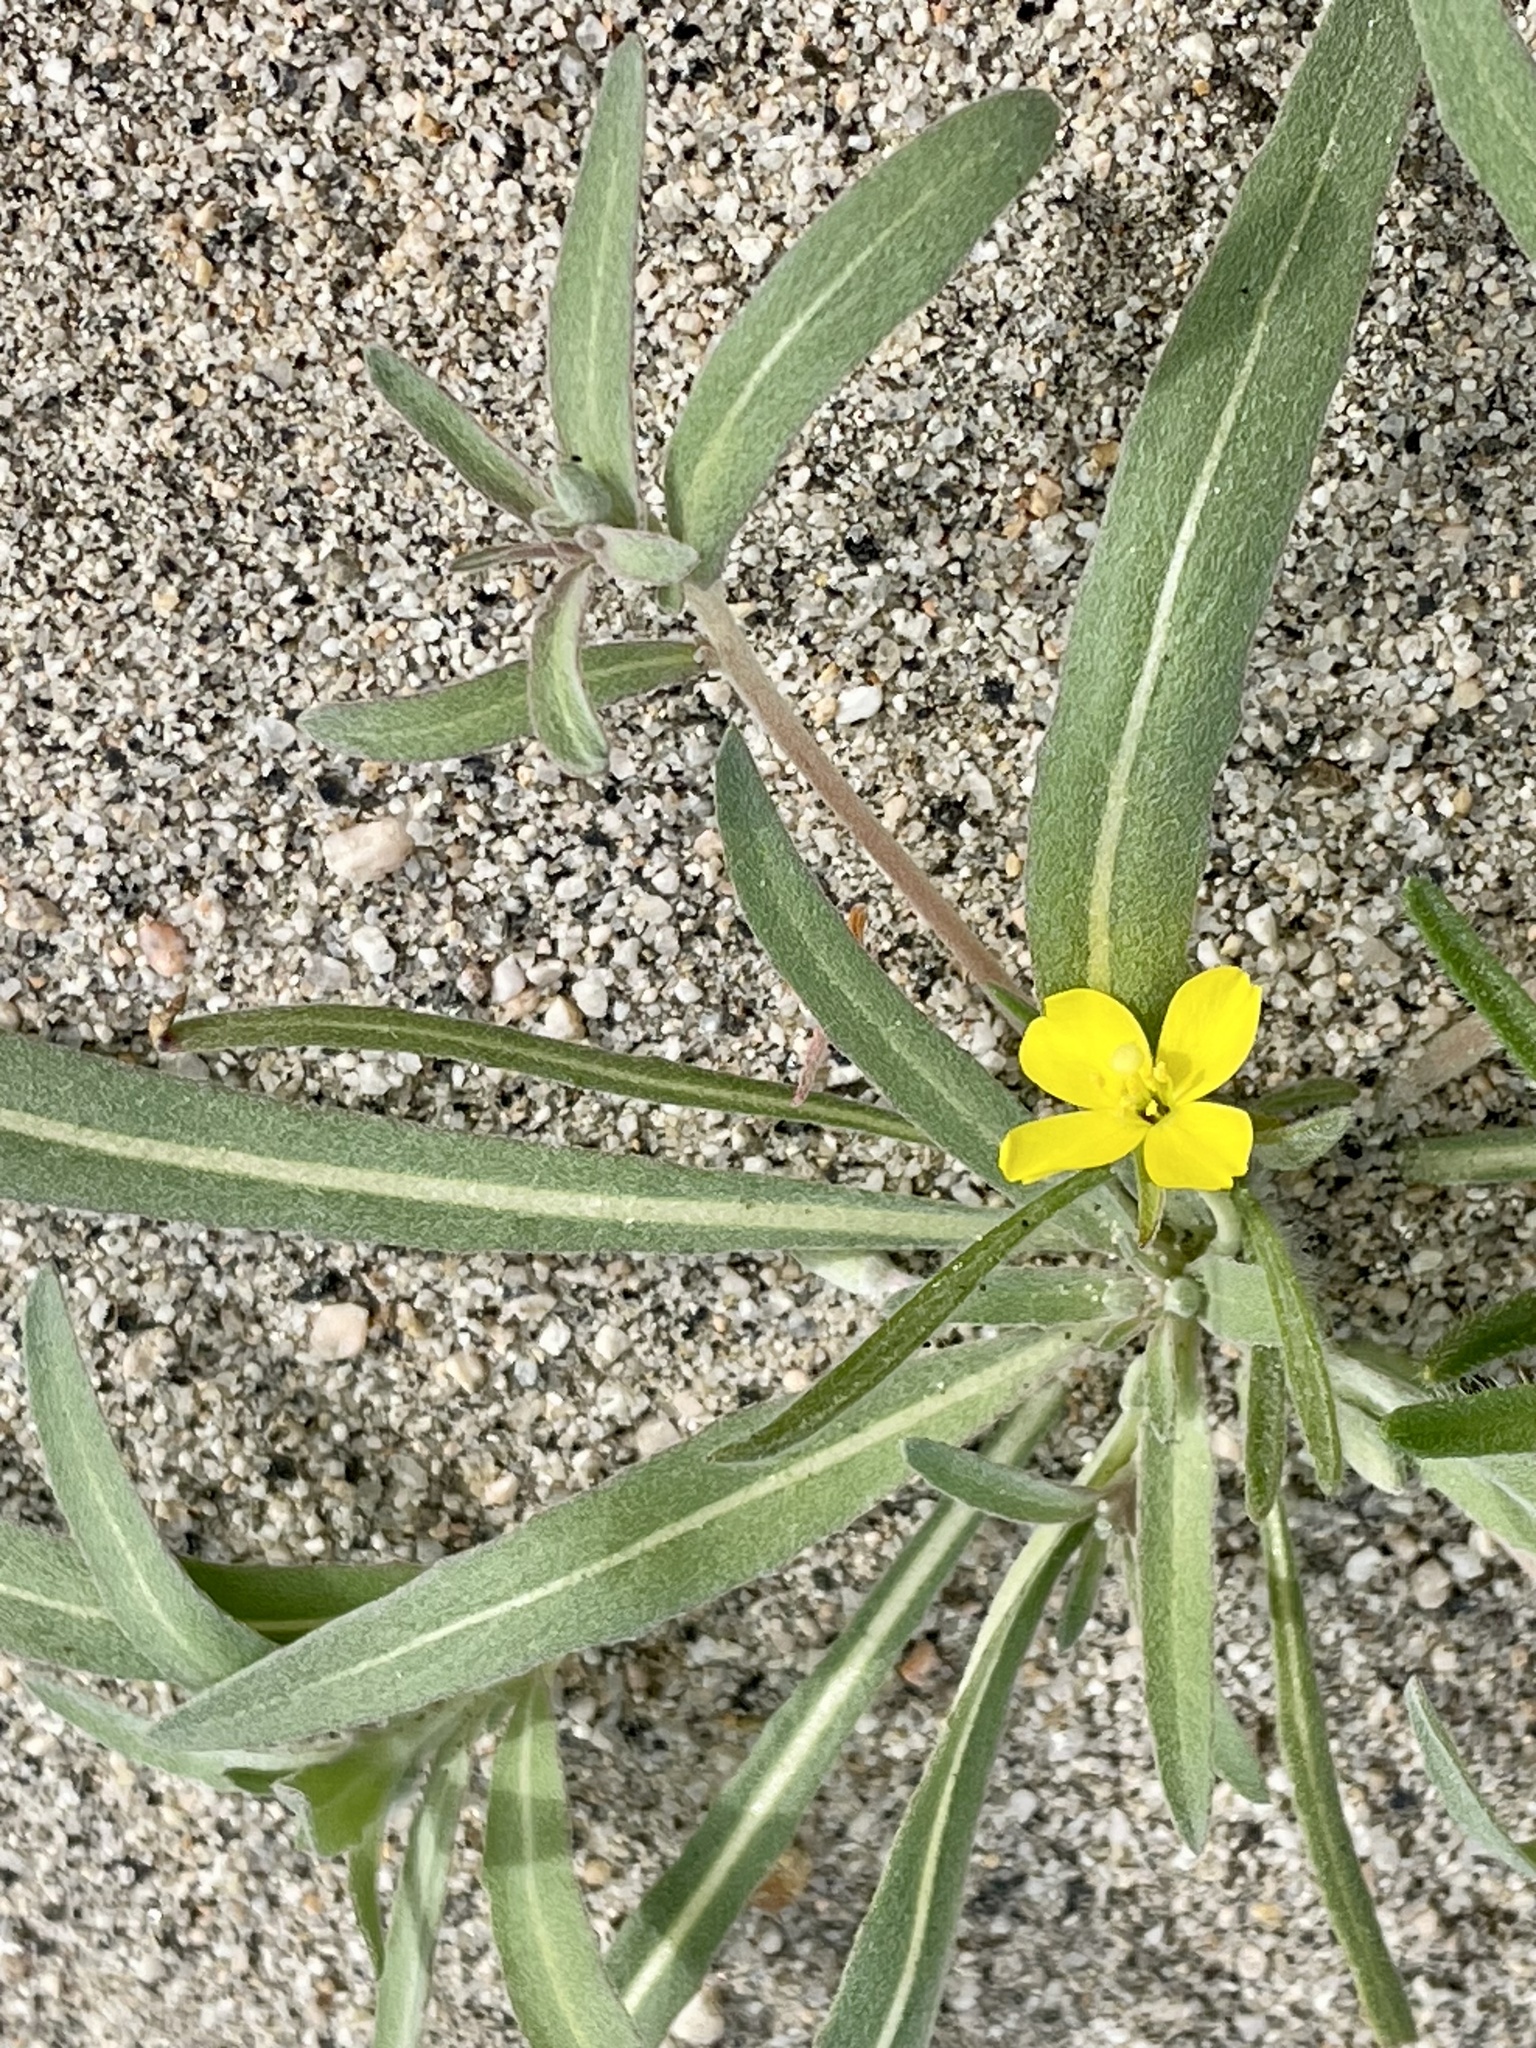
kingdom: Plantae
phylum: Tracheophyta
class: Magnoliopsida
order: Myrtales
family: Onagraceae
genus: Camissoniopsis
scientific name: Camissoniopsis pallida
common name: Paleyellow suncup
